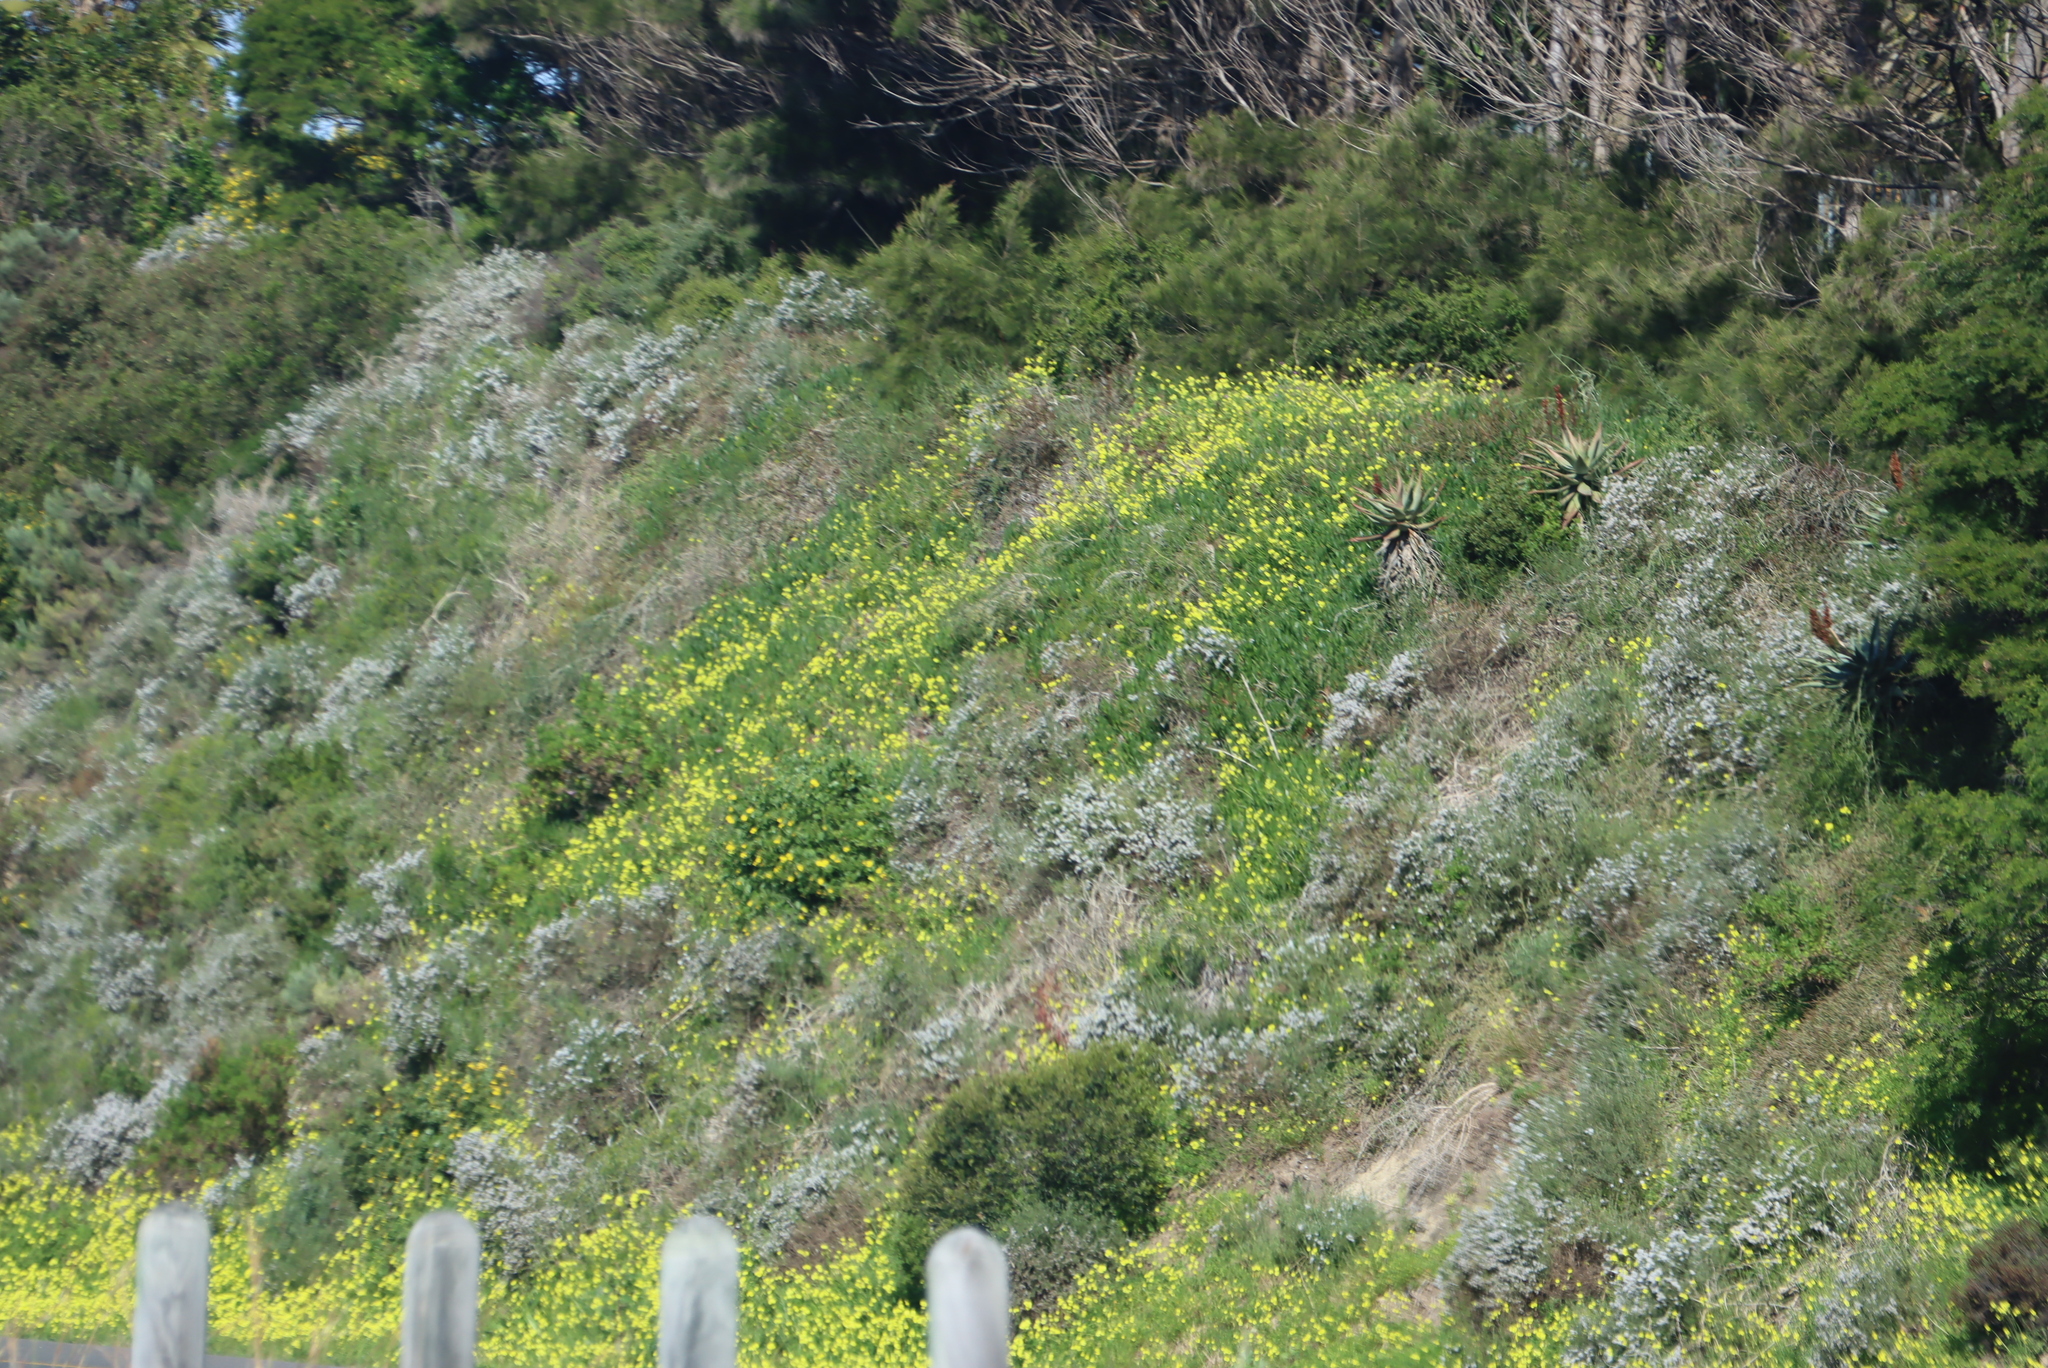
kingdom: Plantae
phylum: Tracheophyta
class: Magnoliopsida
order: Oxalidales
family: Oxalidaceae
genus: Oxalis
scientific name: Oxalis pes-caprae
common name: Bermuda-buttercup
